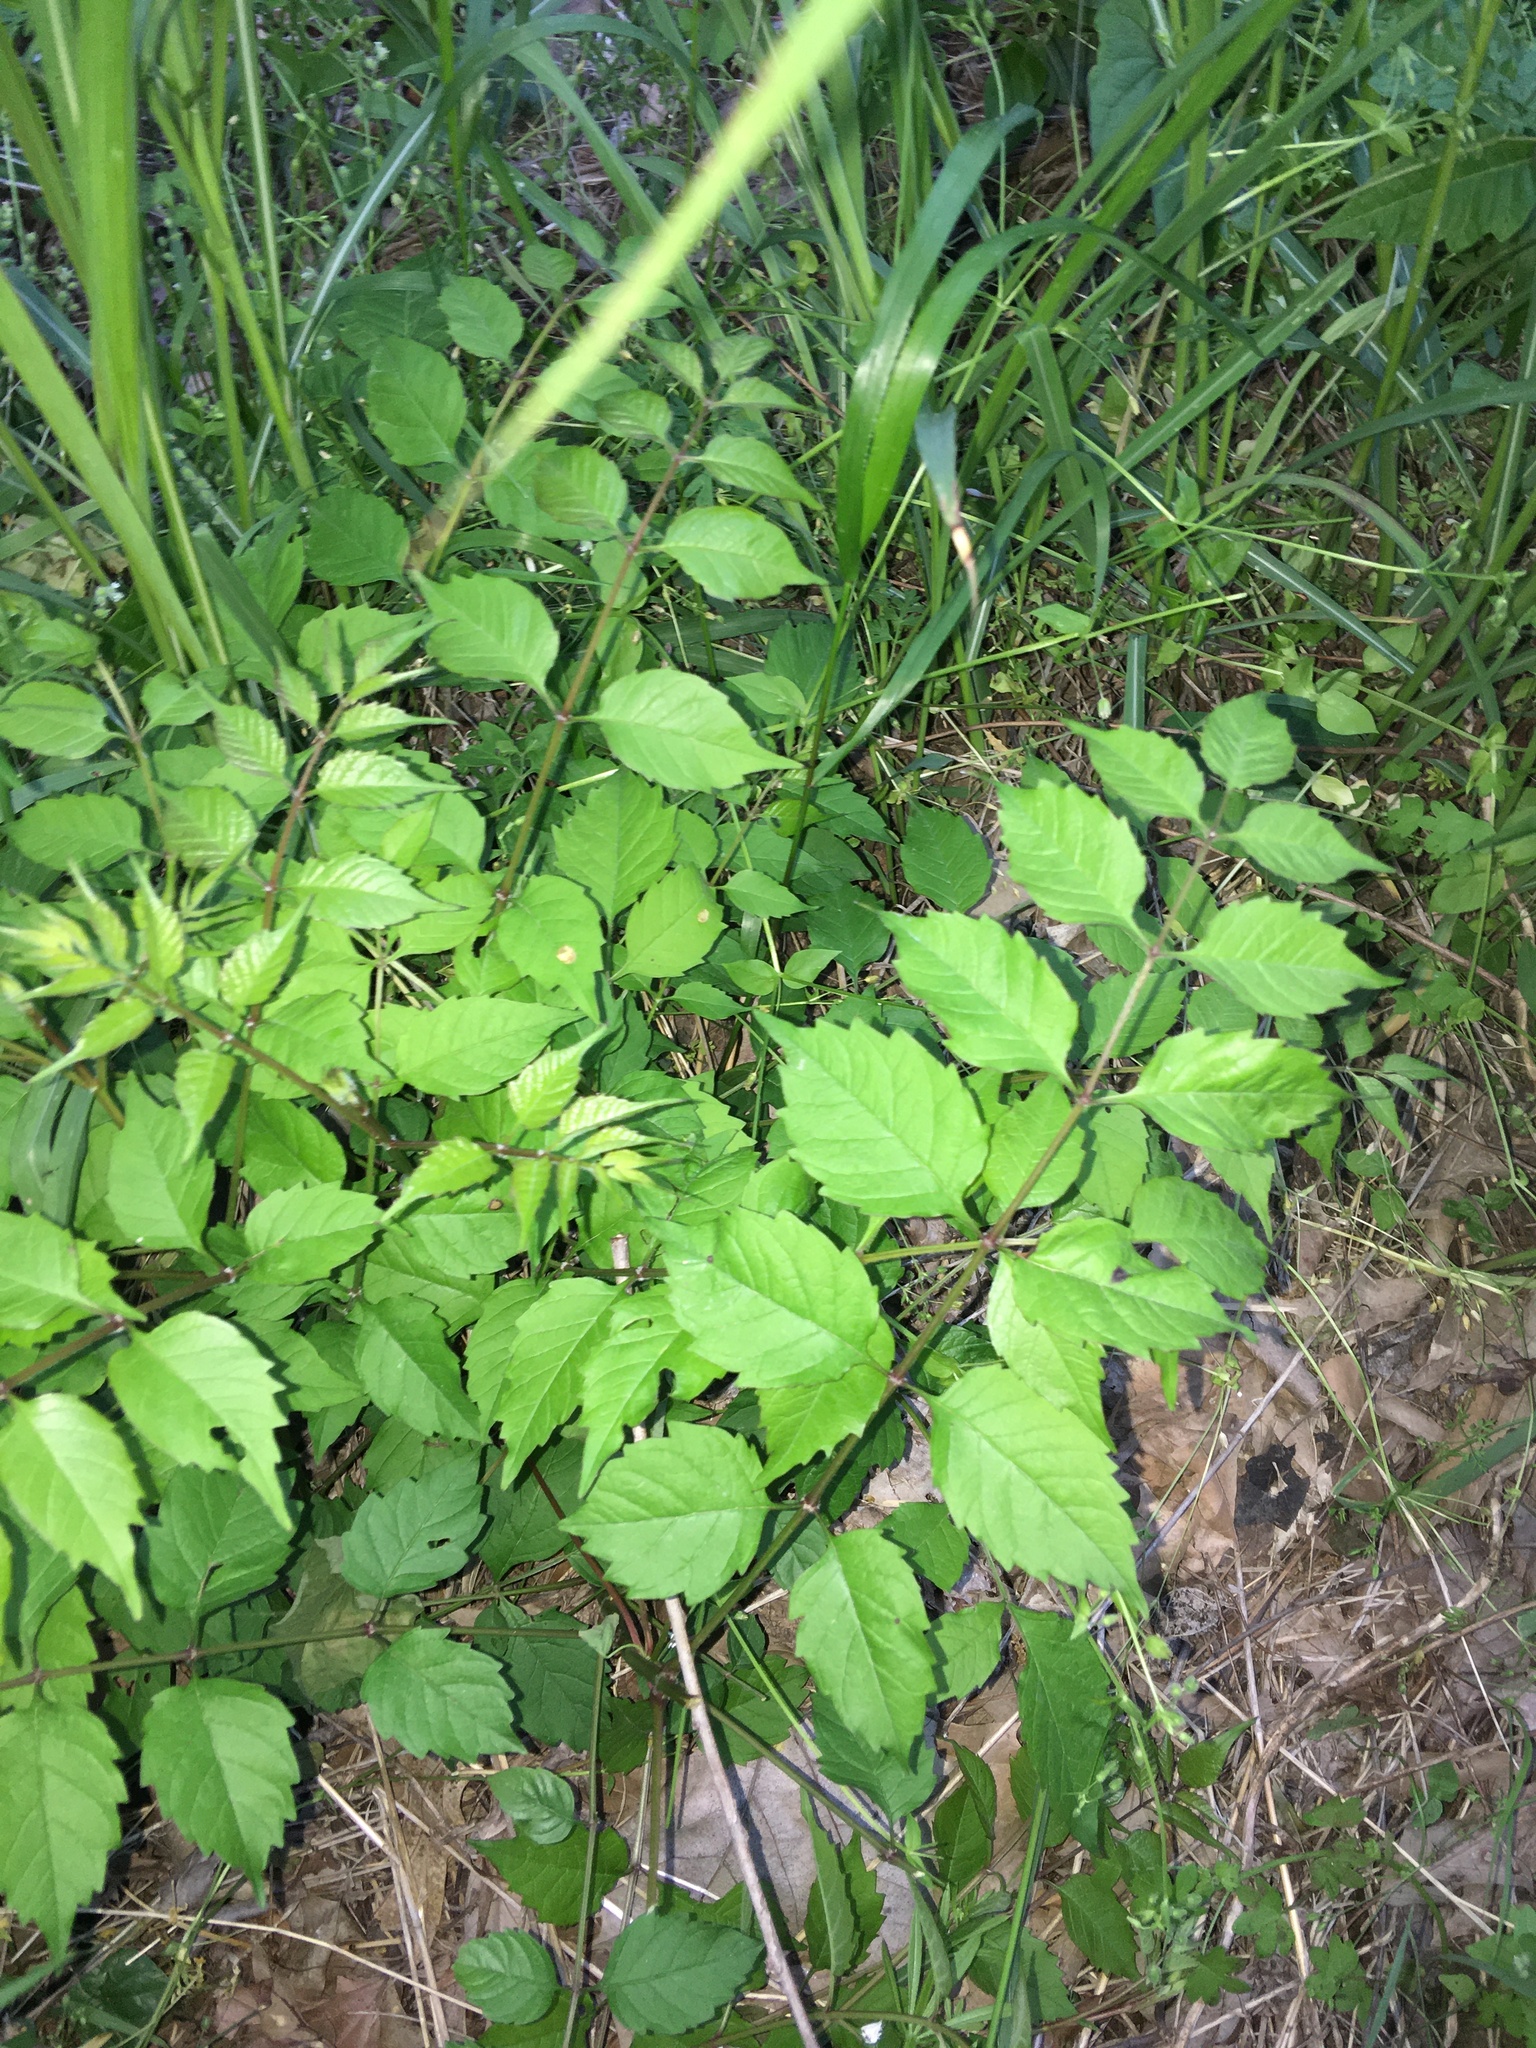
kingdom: Plantae
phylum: Tracheophyta
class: Magnoliopsida
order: Lamiales
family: Bignoniaceae
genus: Campsis
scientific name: Campsis radicans
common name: Trumpet-creeper
